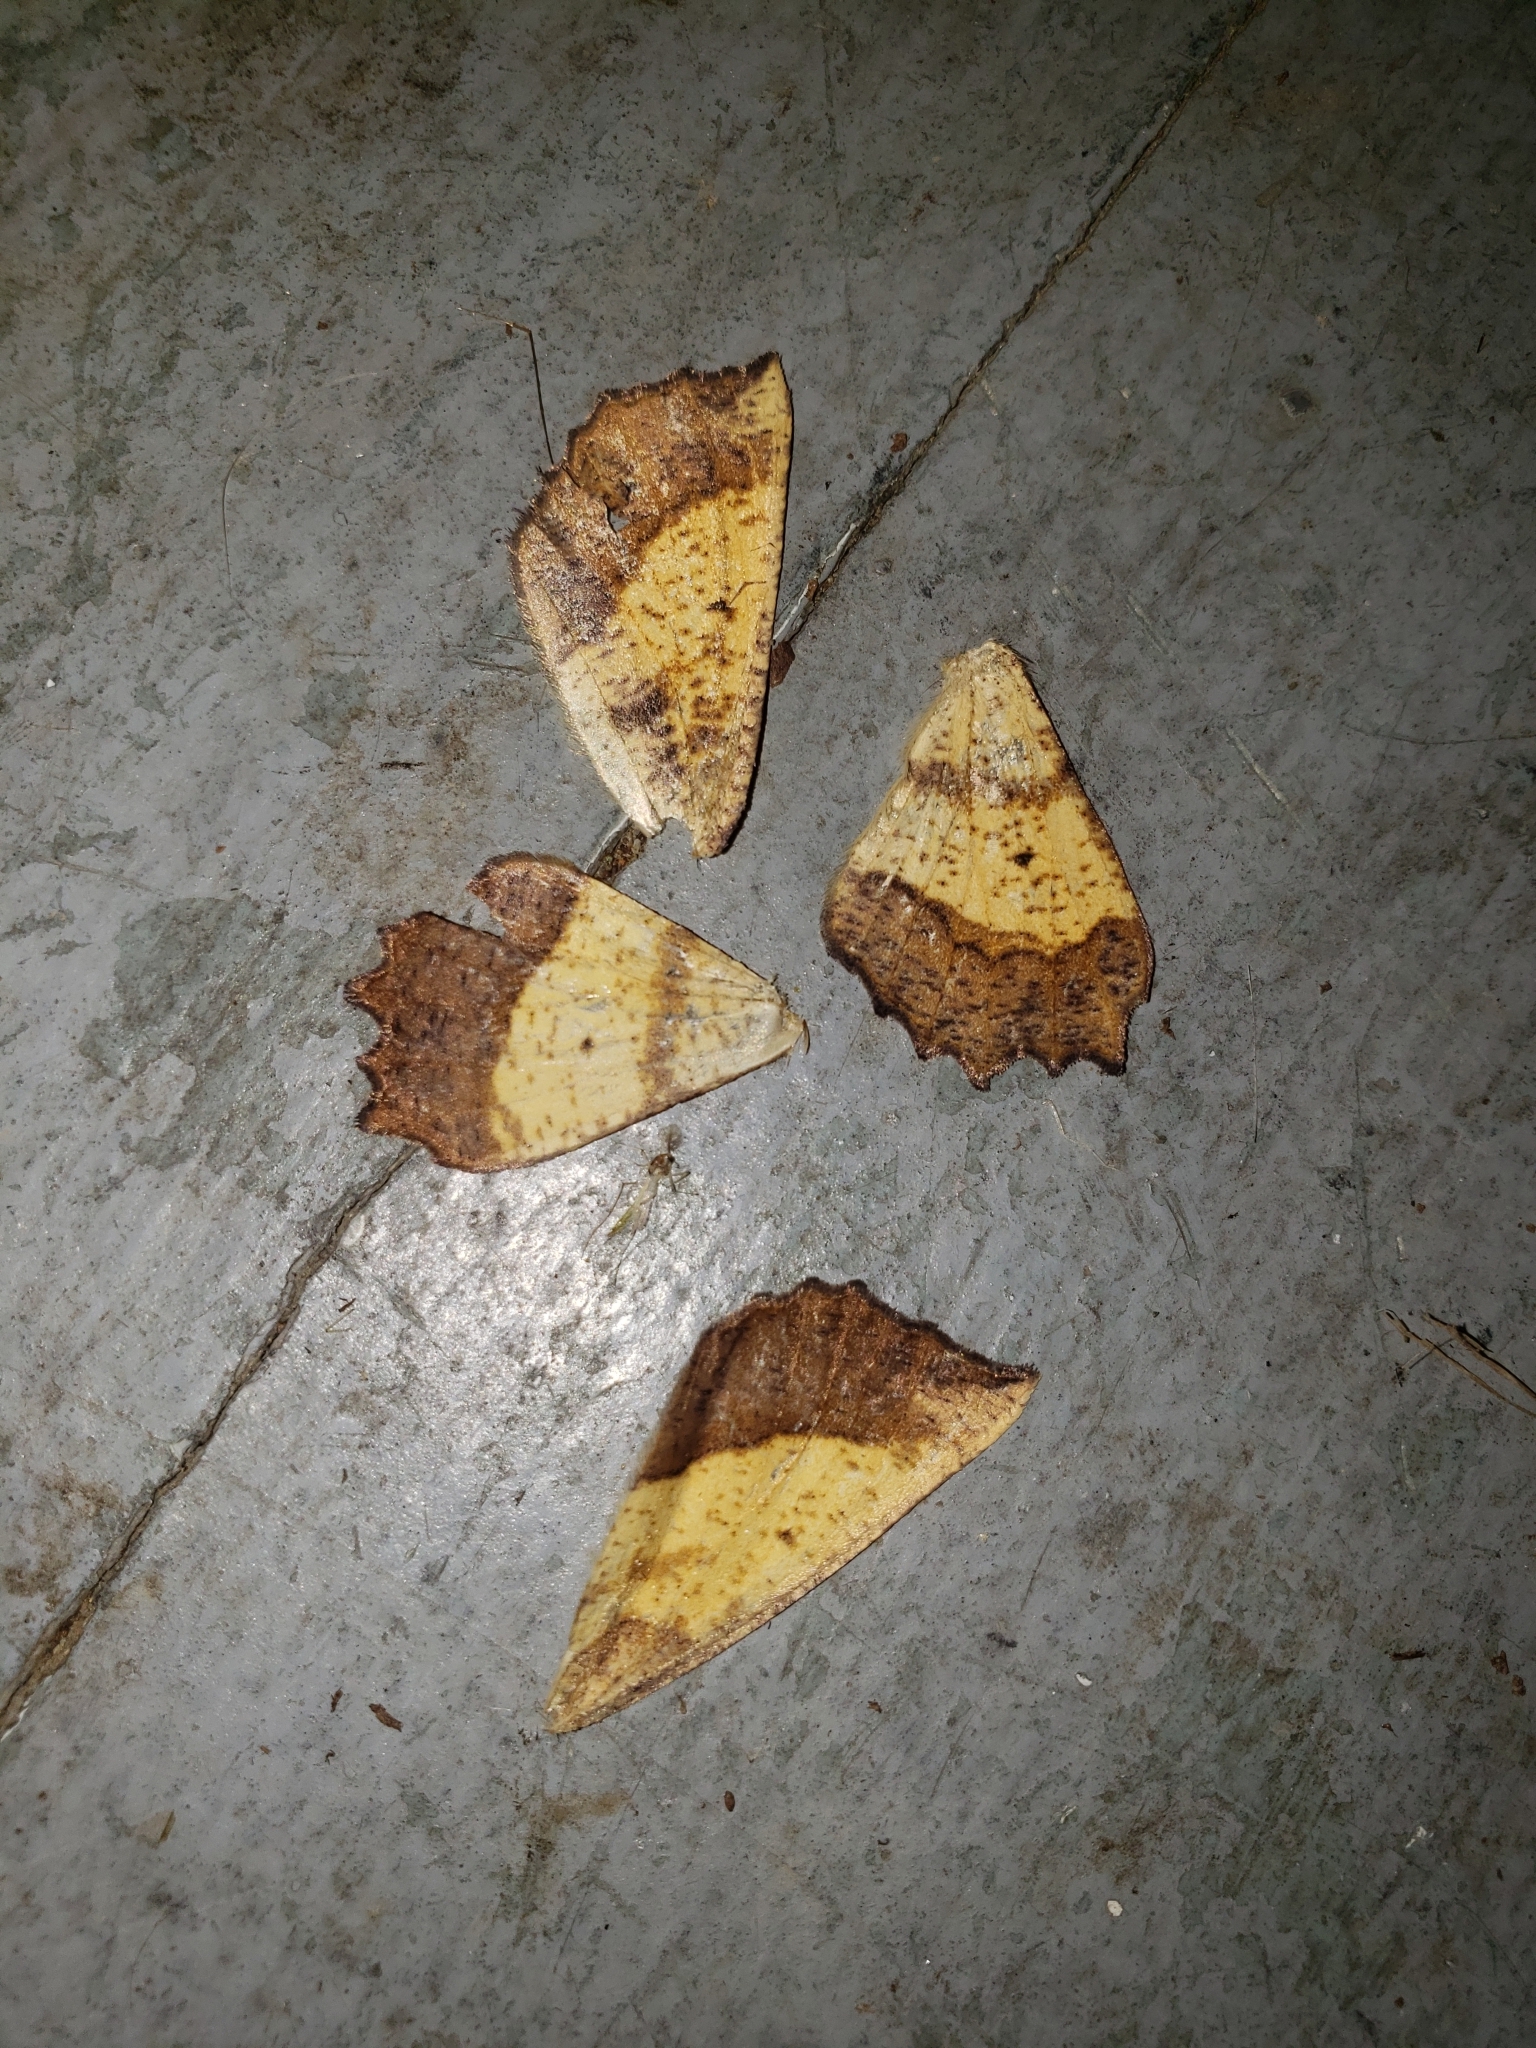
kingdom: Animalia
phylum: Arthropoda
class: Insecta
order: Lepidoptera
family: Geometridae
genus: Euchlaena
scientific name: Euchlaena serrata
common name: Saw wing
